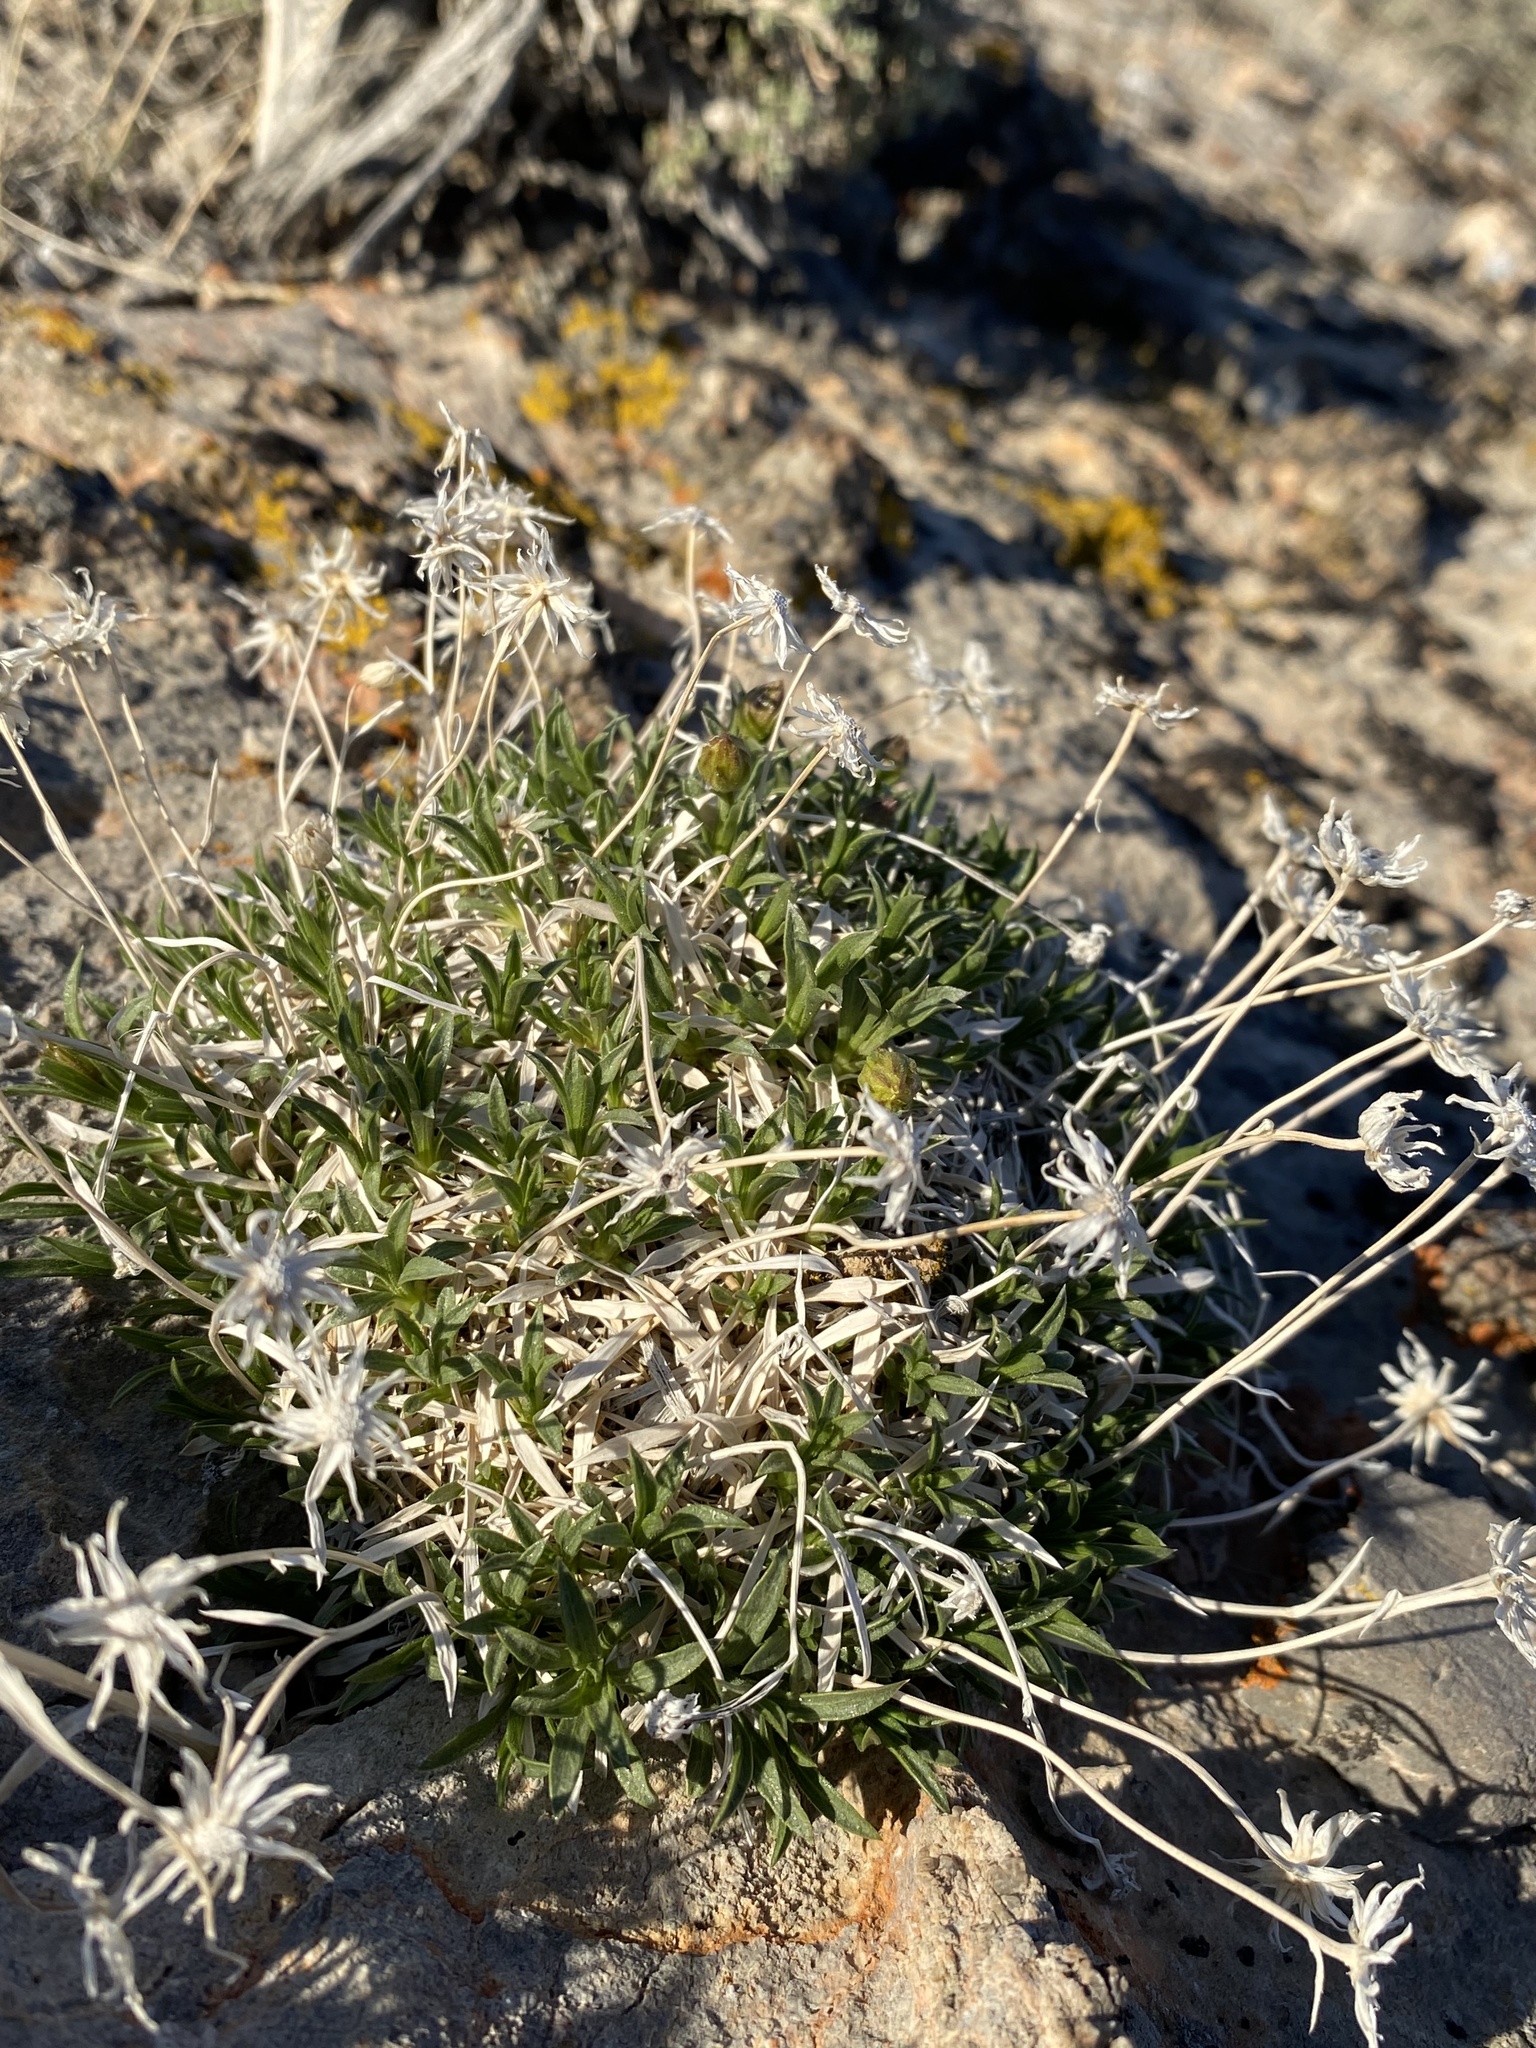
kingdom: Plantae
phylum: Tracheophyta
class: Magnoliopsida
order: Asterales
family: Asteraceae
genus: Stenotus
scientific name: Stenotus acaulis
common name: Stemless goldenweed
